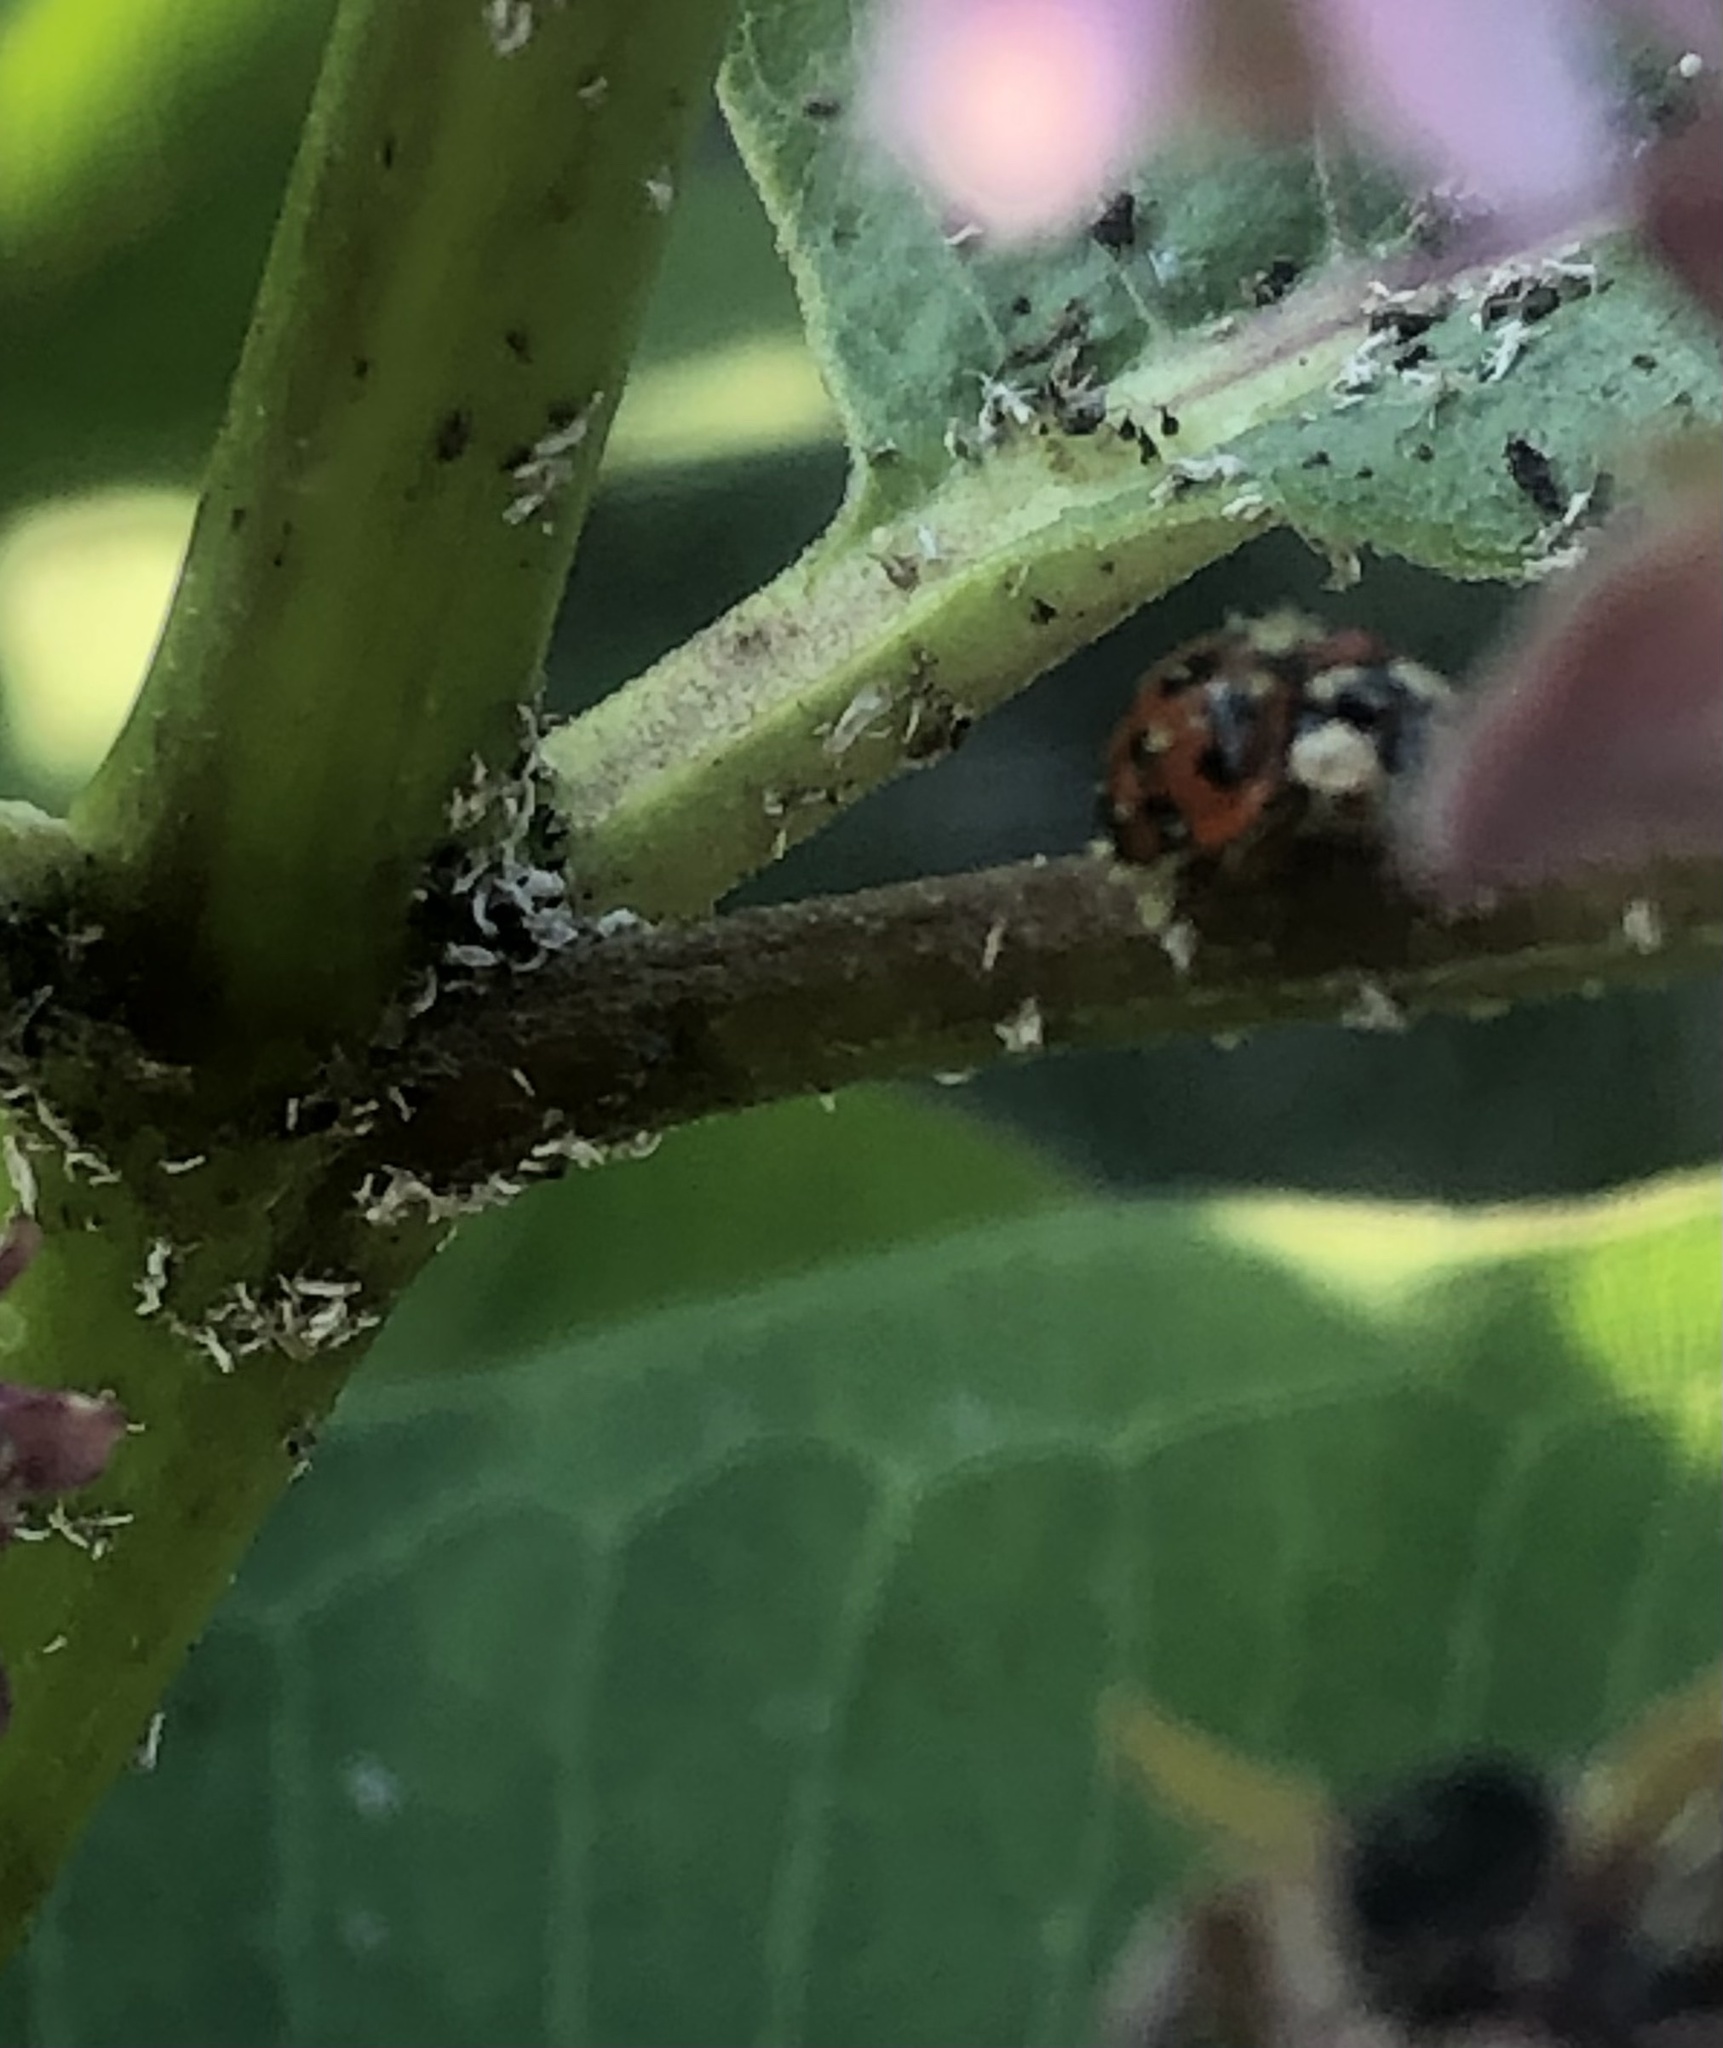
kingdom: Animalia
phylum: Arthropoda
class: Insecta
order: Coleoptera
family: Coccinellidae
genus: Harmonia
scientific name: Harmonia axyridis
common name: Harlequin ladybird
